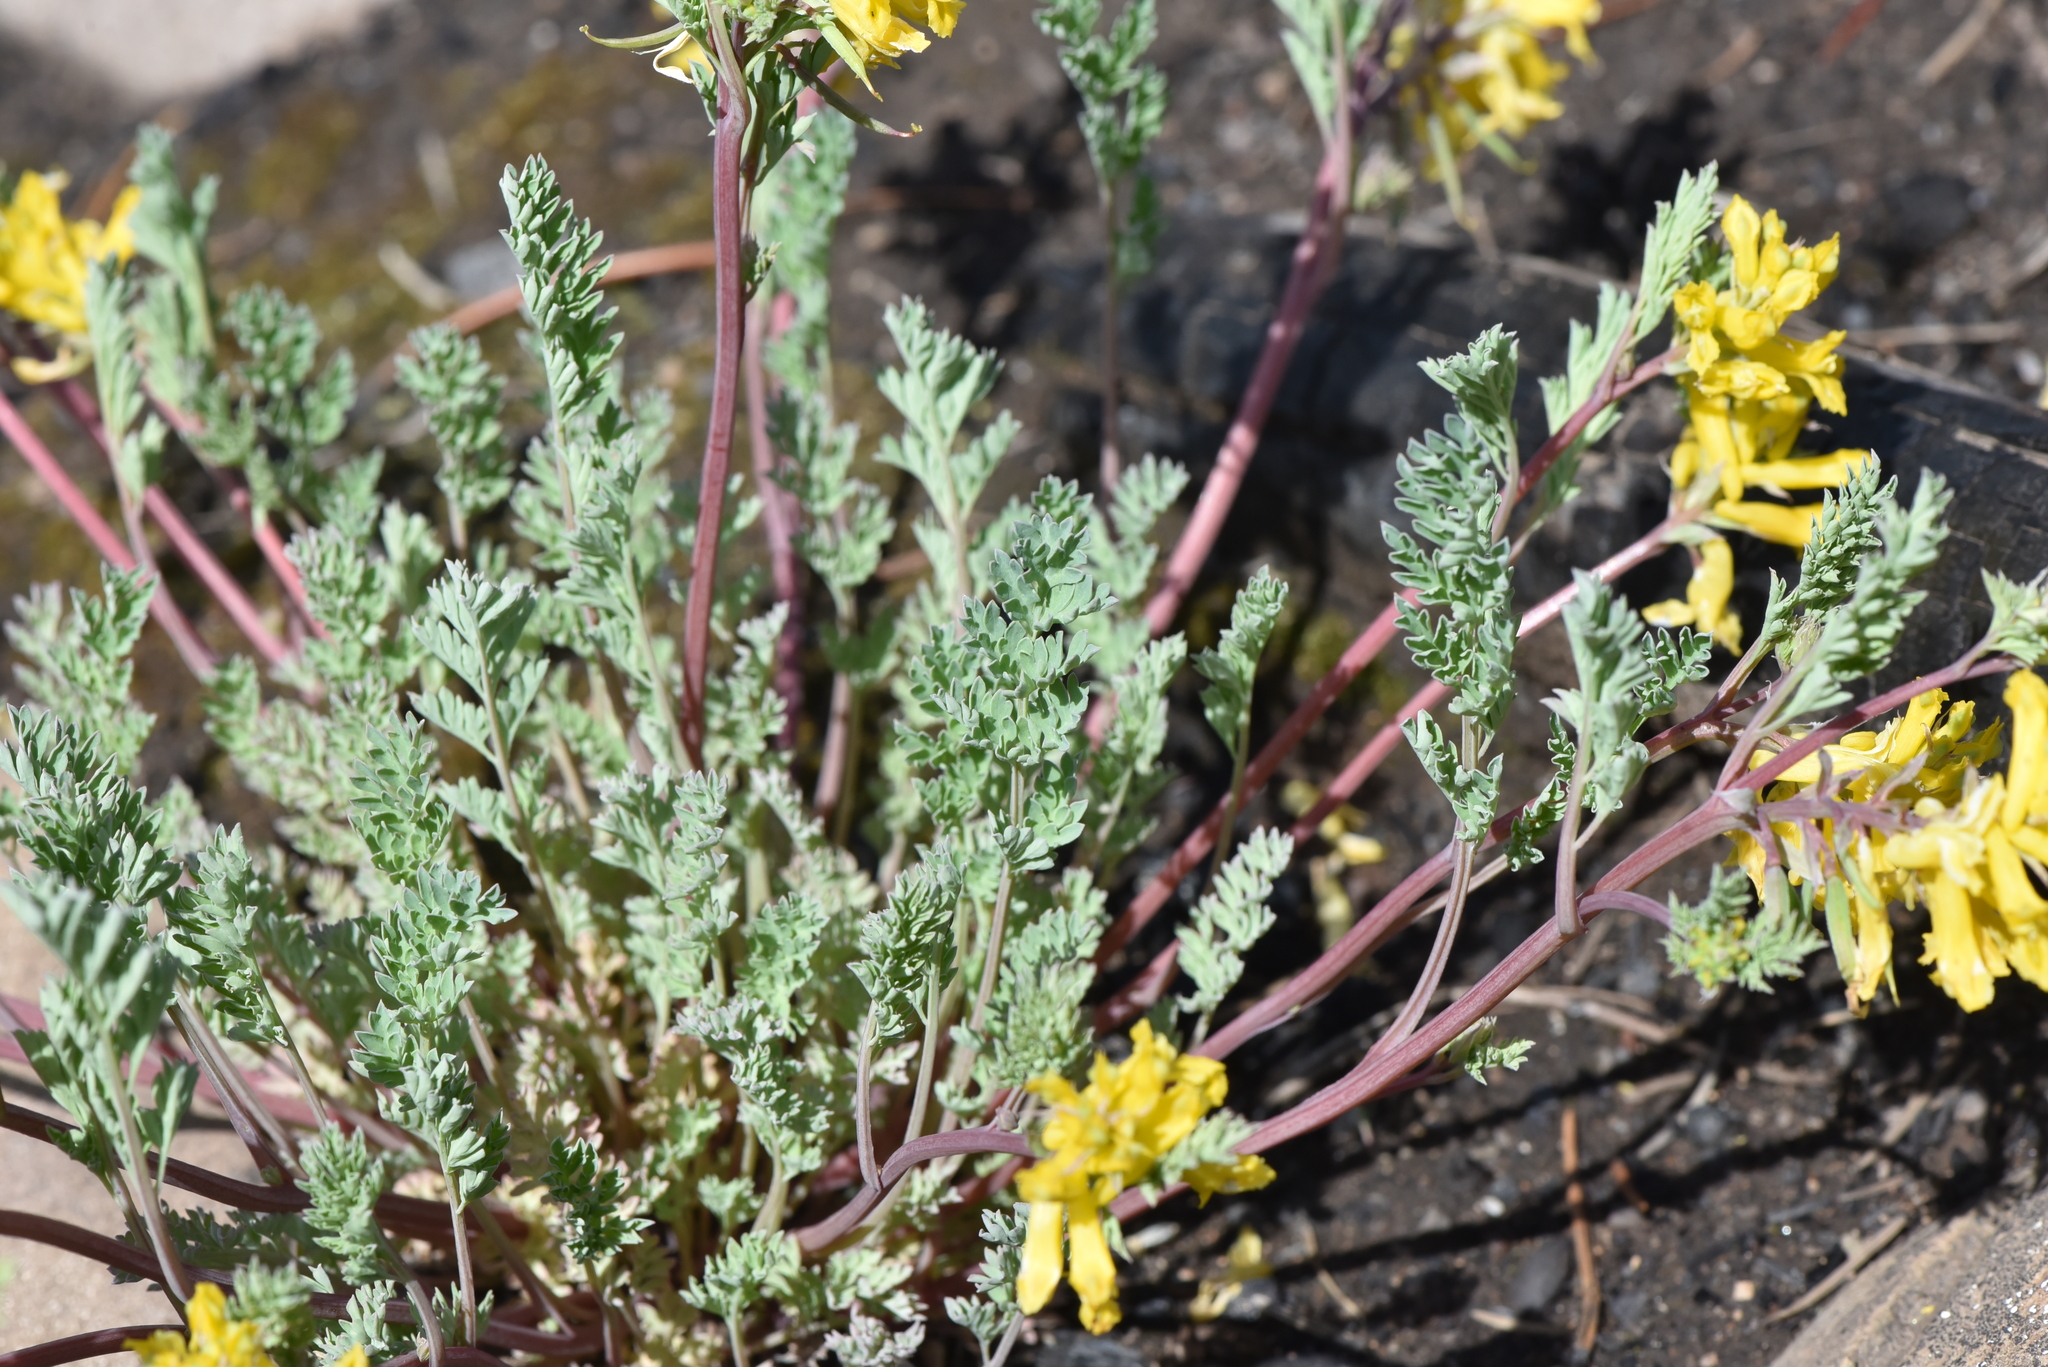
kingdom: Plantae
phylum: Tracheophyta
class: Magnoliopsida
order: Ranunculales
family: Papaveraceae
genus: Corydalis
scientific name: Corydalis aurea
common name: Golden corydalis
